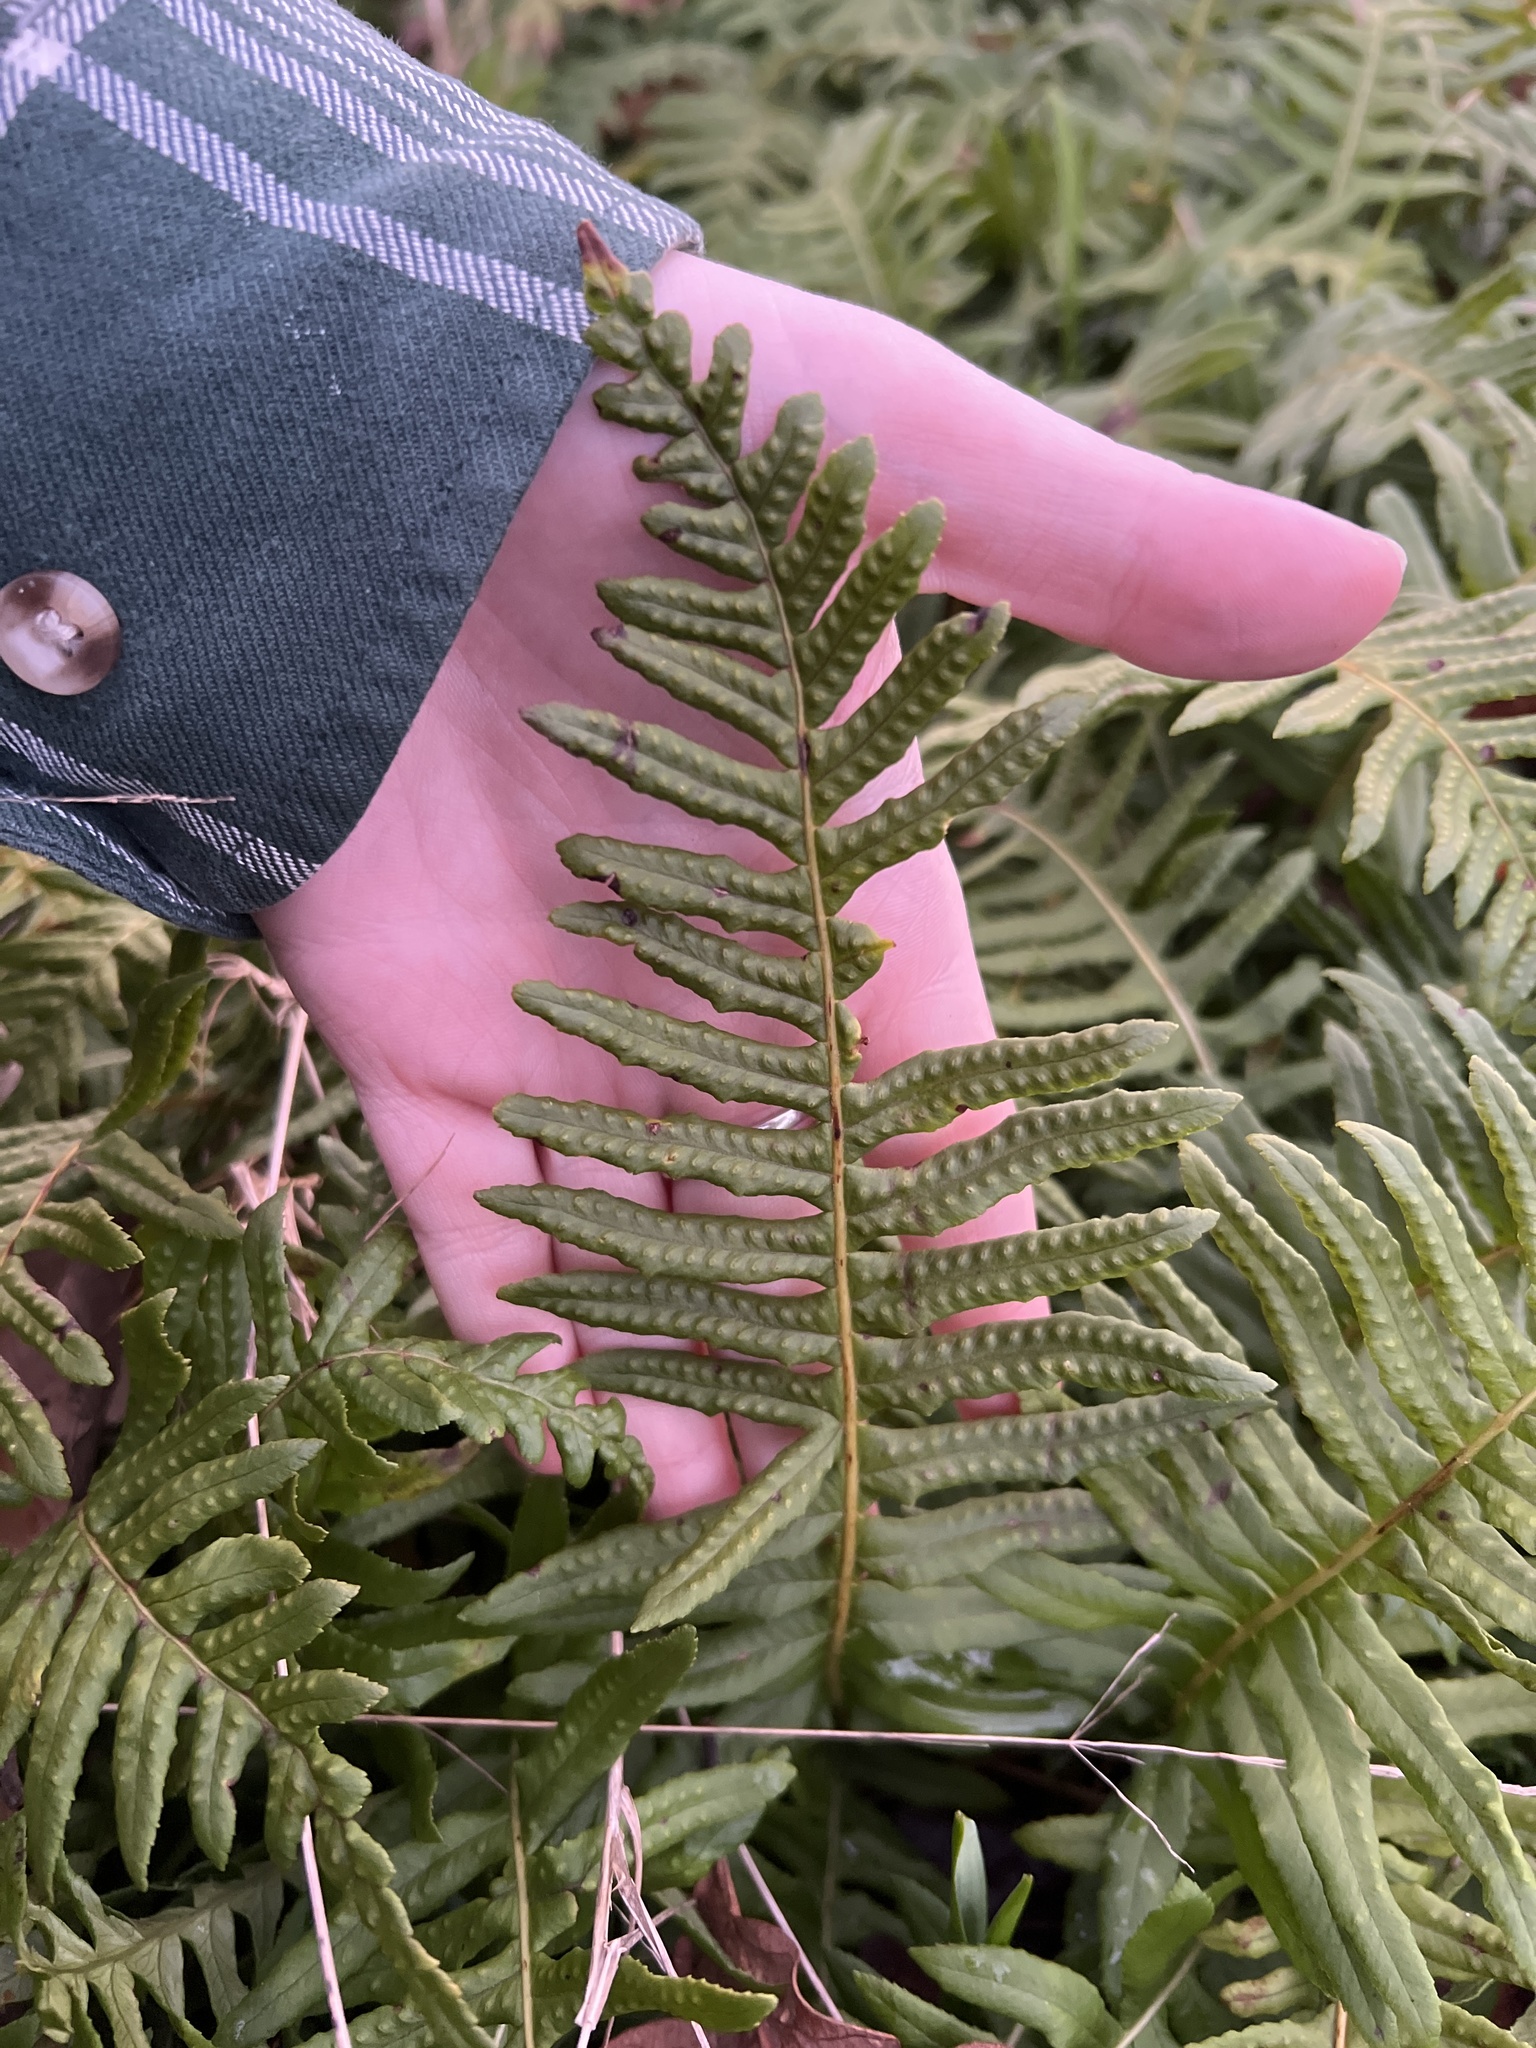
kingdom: Plantae
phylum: Tracheophyta
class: Polypodiopsida
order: Polypodiales
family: Polypodiaceae
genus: Polypodium
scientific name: Polypodium glycyrrhiza
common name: Licorice fern
